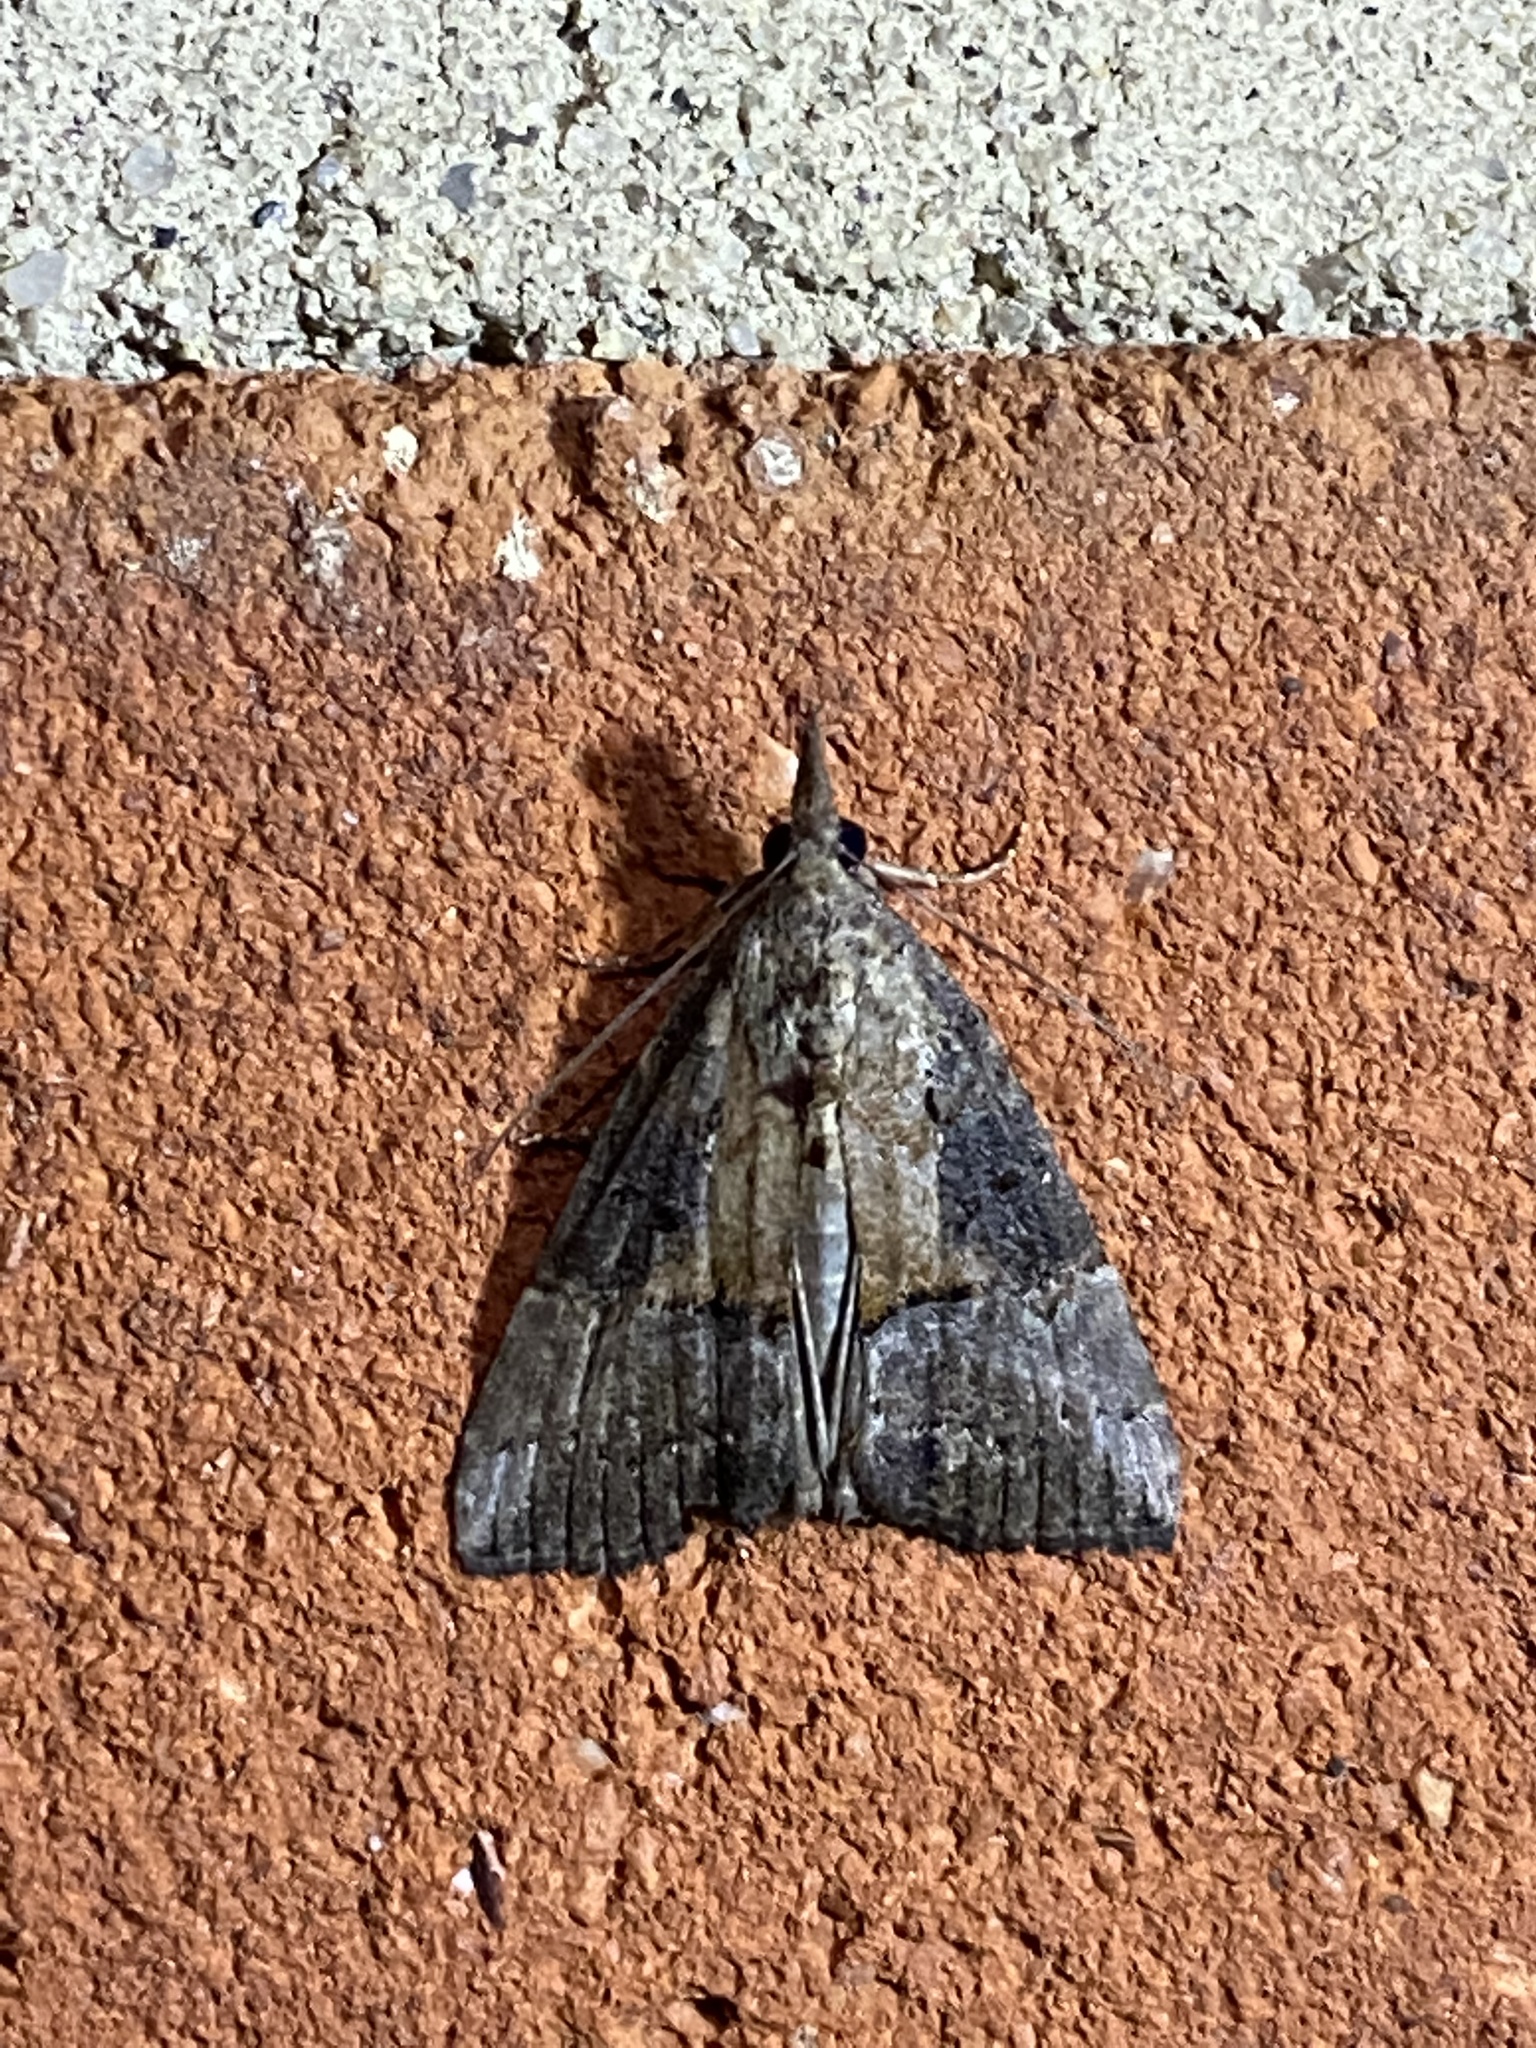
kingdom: Animalia
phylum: Arthropoda
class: Insecta
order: Lepidoptera
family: Erebidae
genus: Hypena
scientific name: Hypena scabra
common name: Green cloverworm
